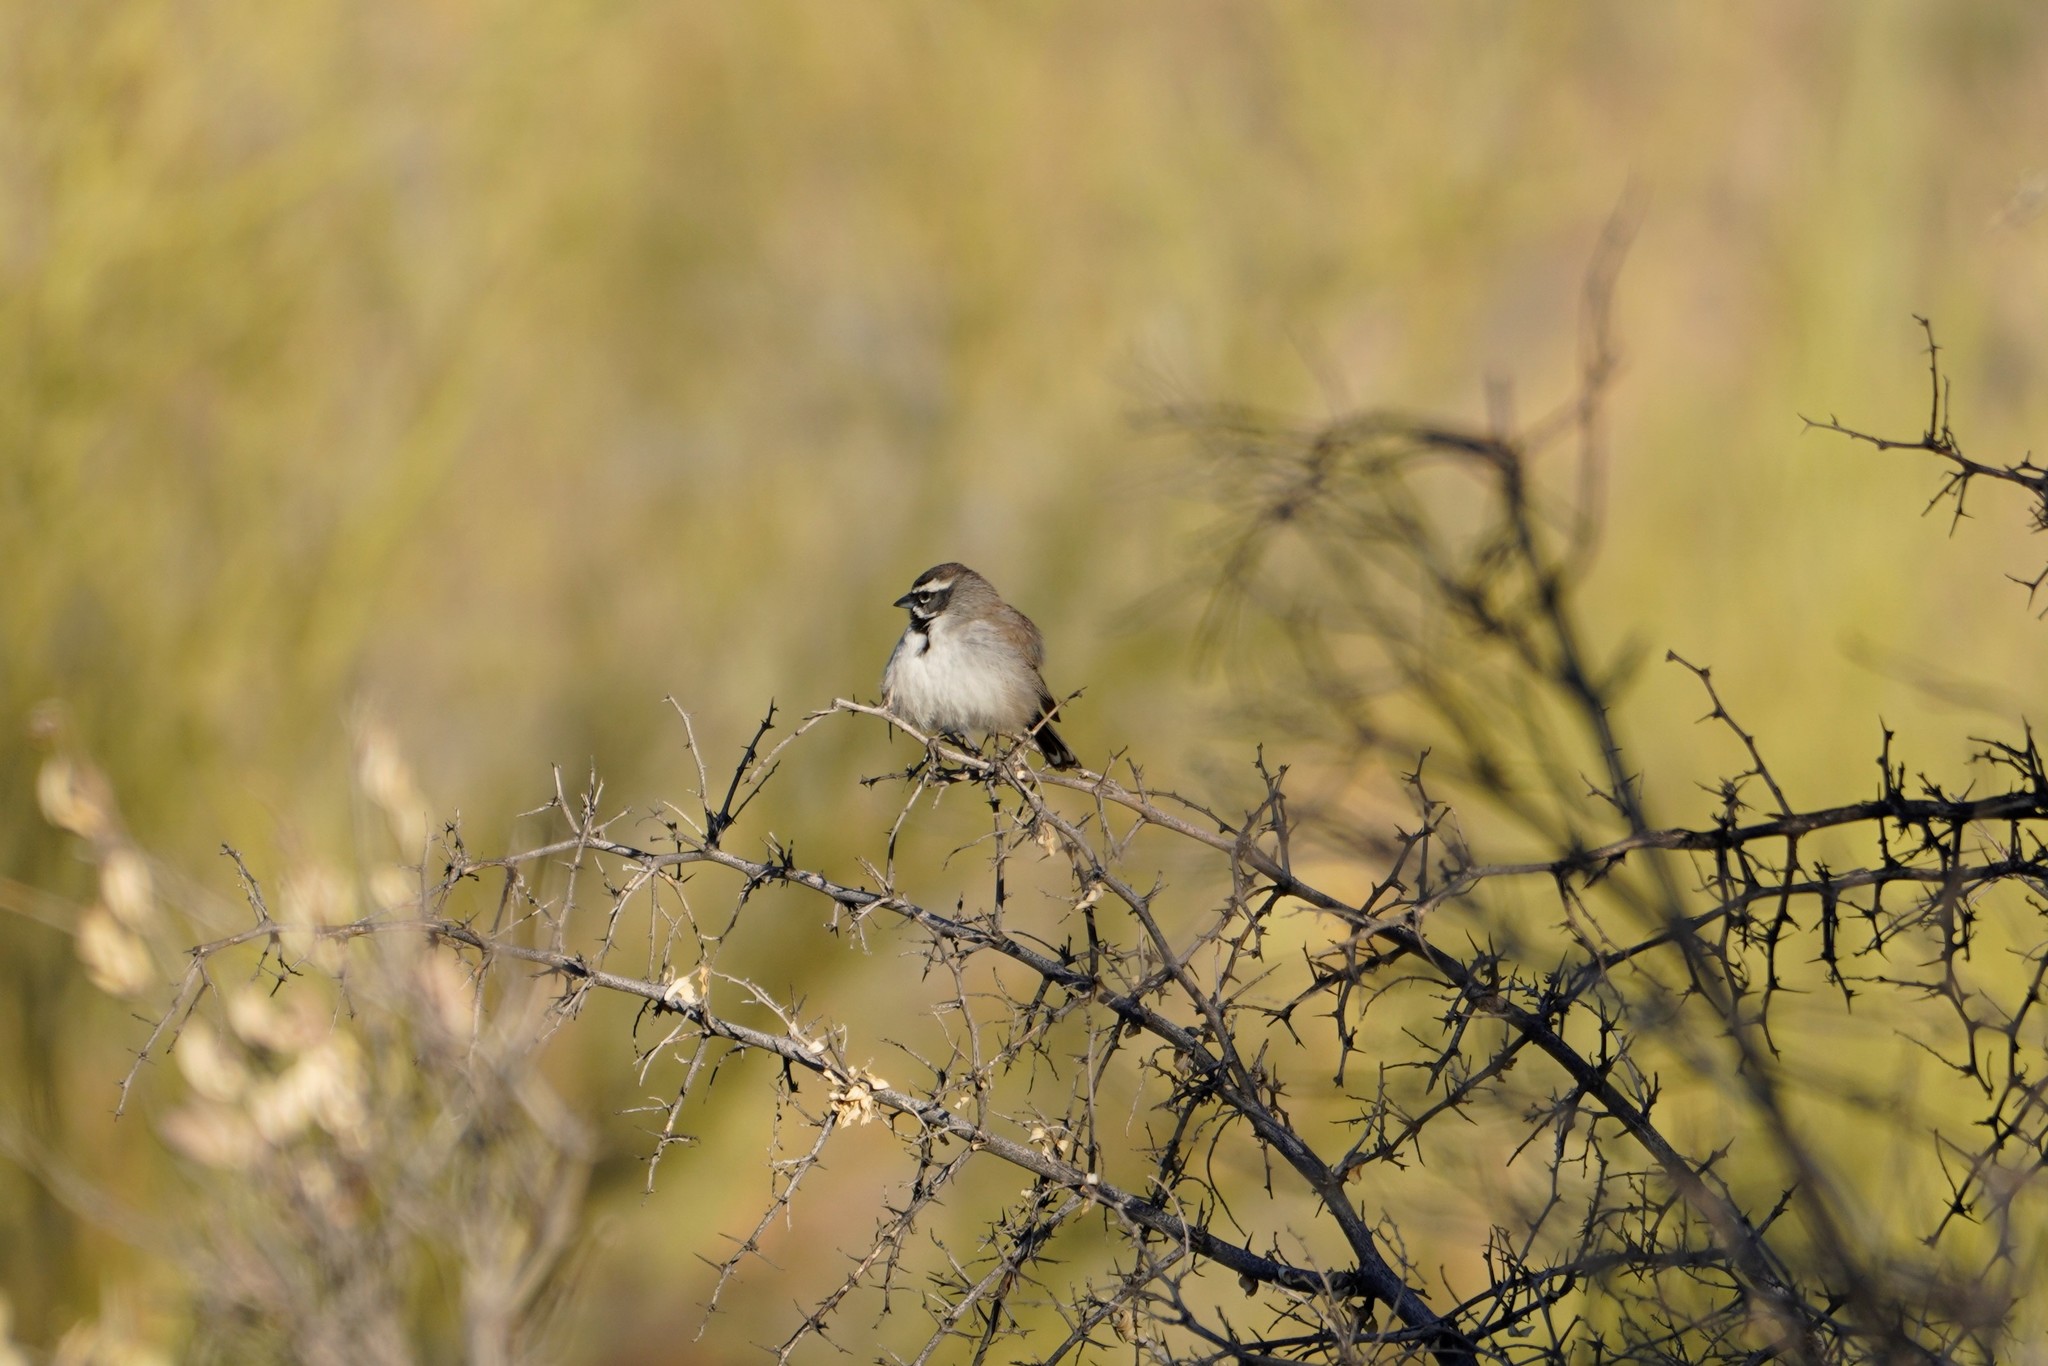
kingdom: Animalia
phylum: Chordata
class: Aves
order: Passeriformes
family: Passerellidae
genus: Amphispiza
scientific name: Amphispiza bilineata
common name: Black-throated sparrow
